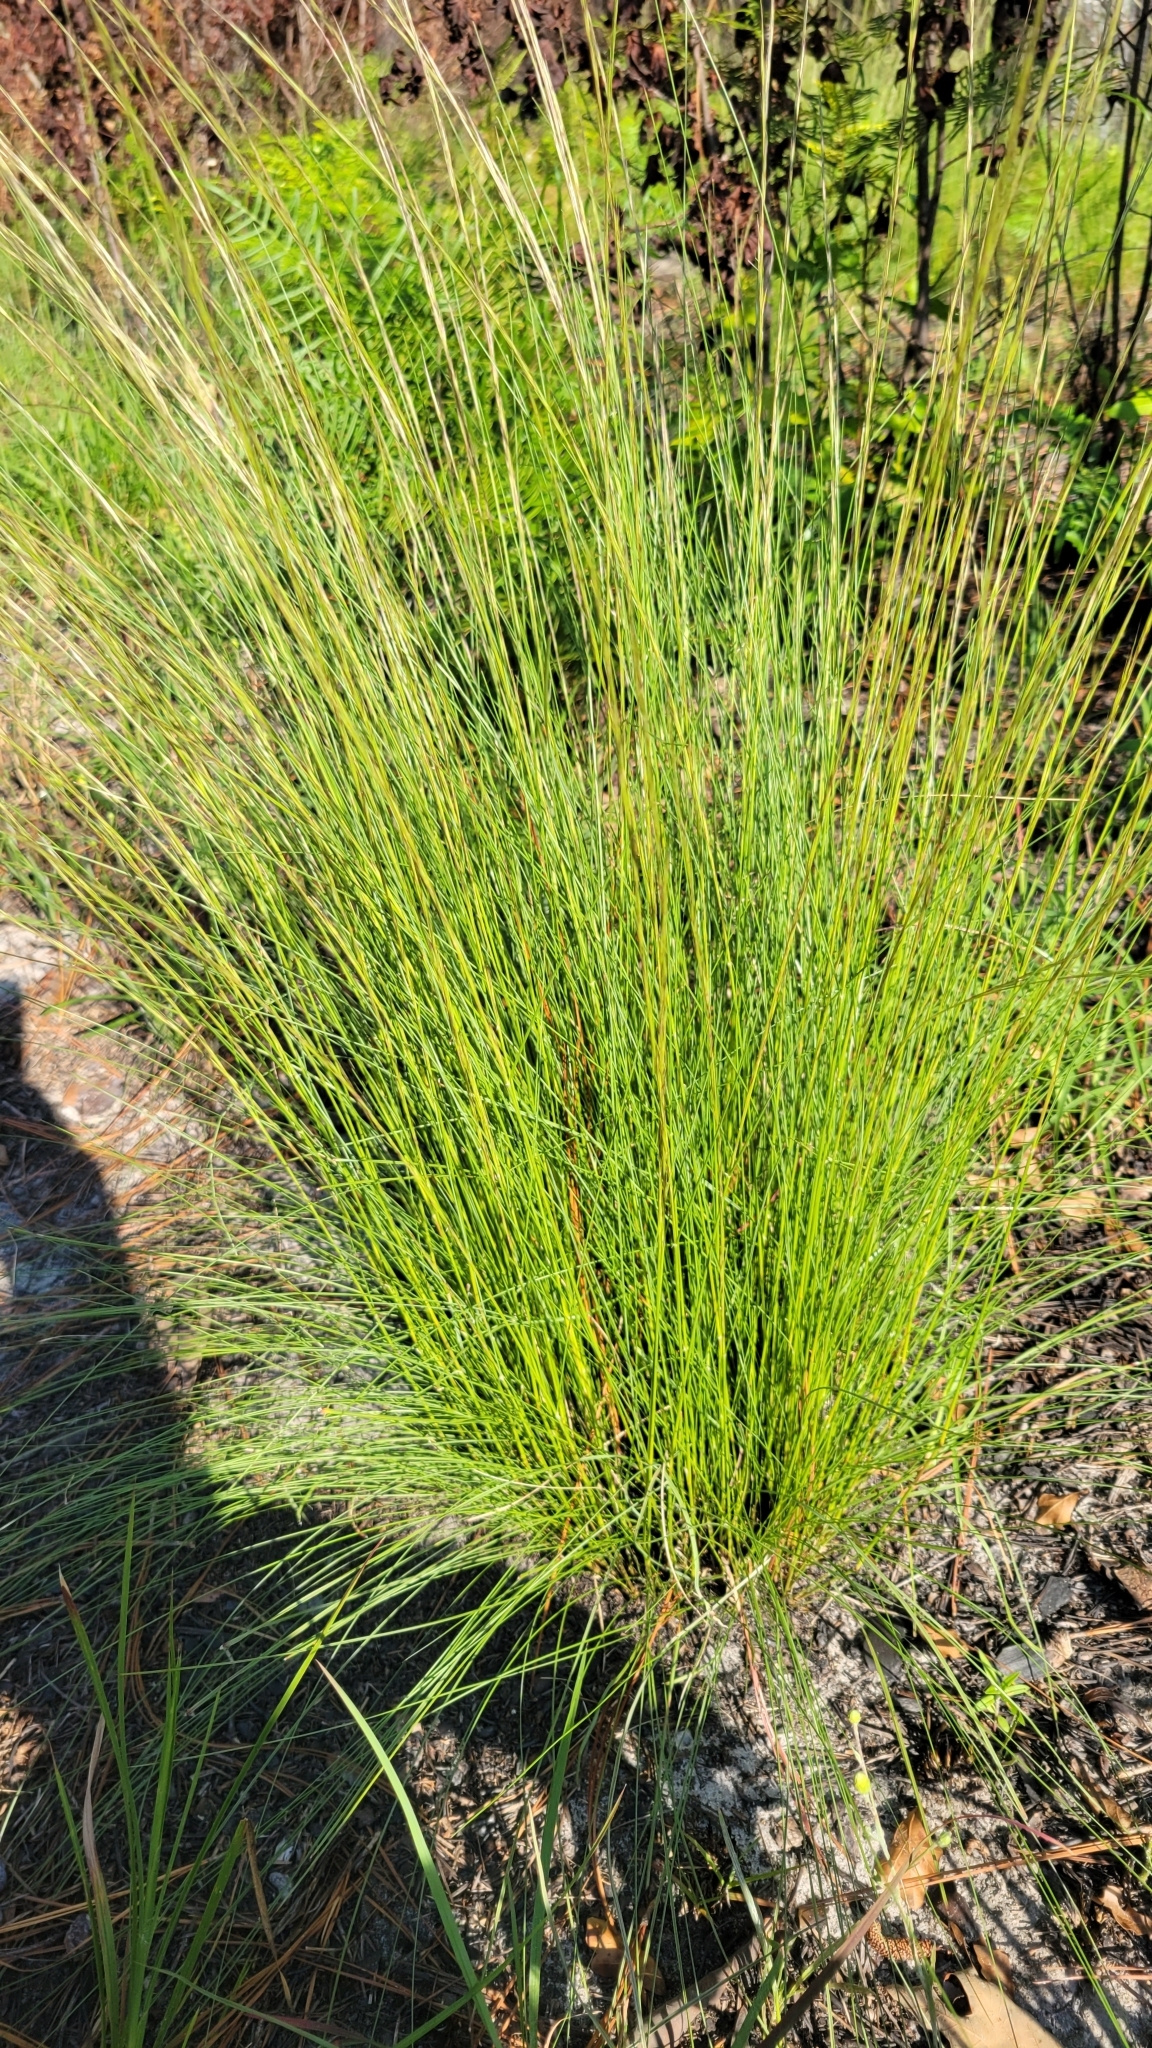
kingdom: Plantae
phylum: Tracheophyta
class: Liliopsida
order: Poales
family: Poaceae
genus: Aristida
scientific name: Aristida beyrichiana
